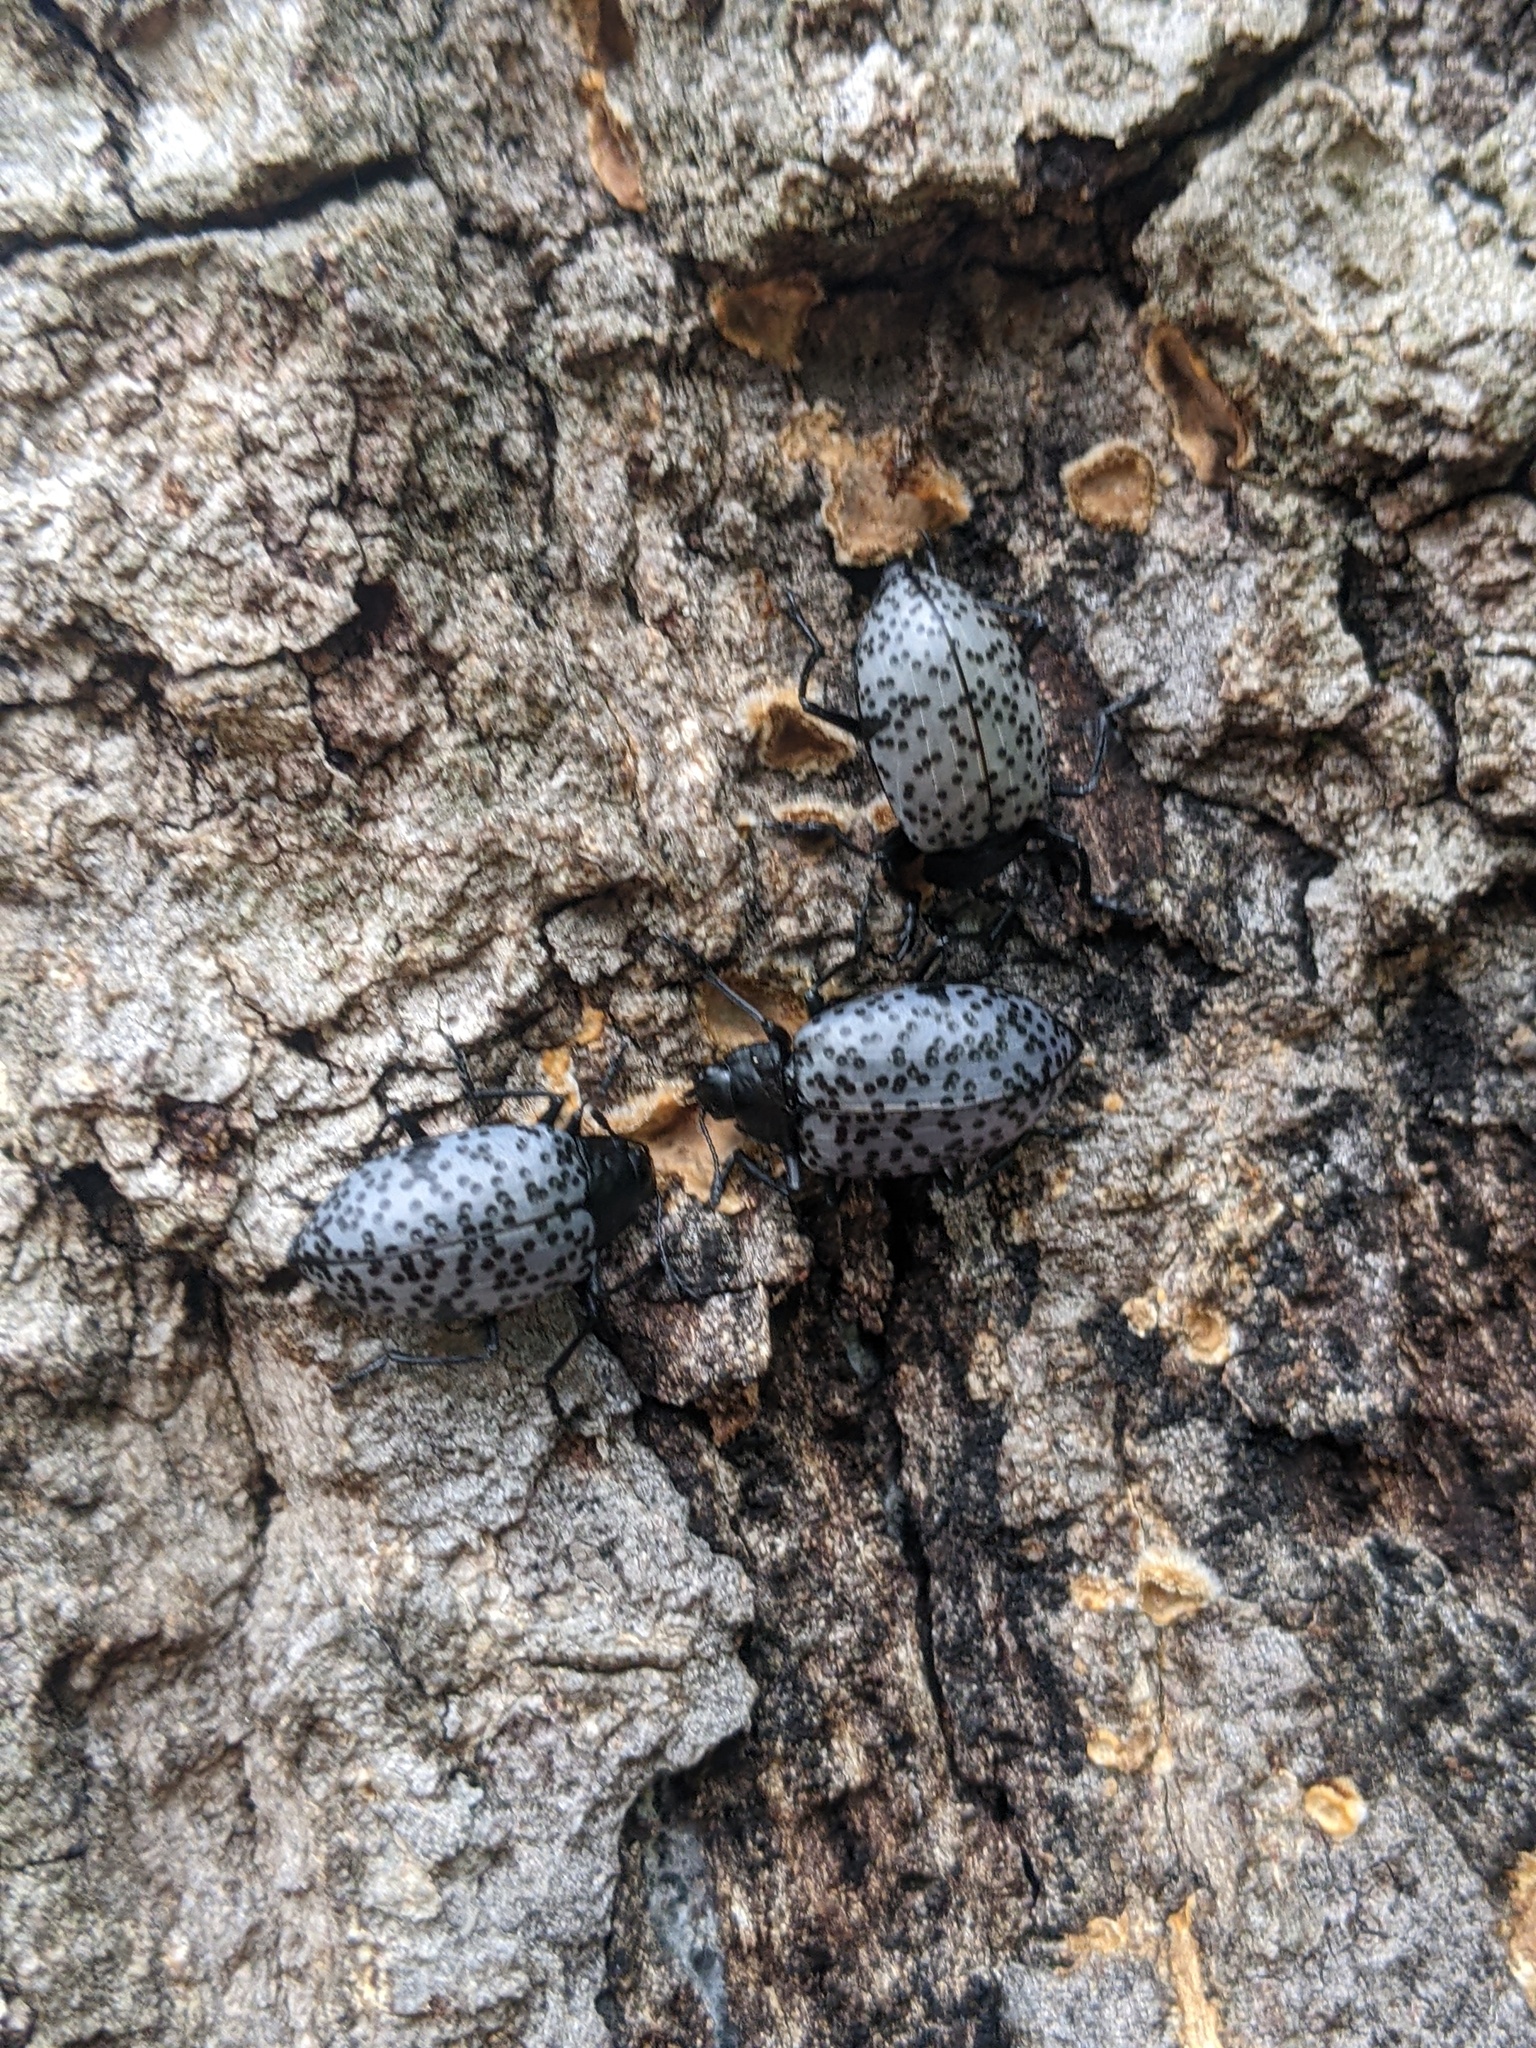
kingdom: Animalia
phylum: Arthropoda
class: Insecta
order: Coleoptera
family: Erotylidae
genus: Gibbifer
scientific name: Gibbifer californicus
